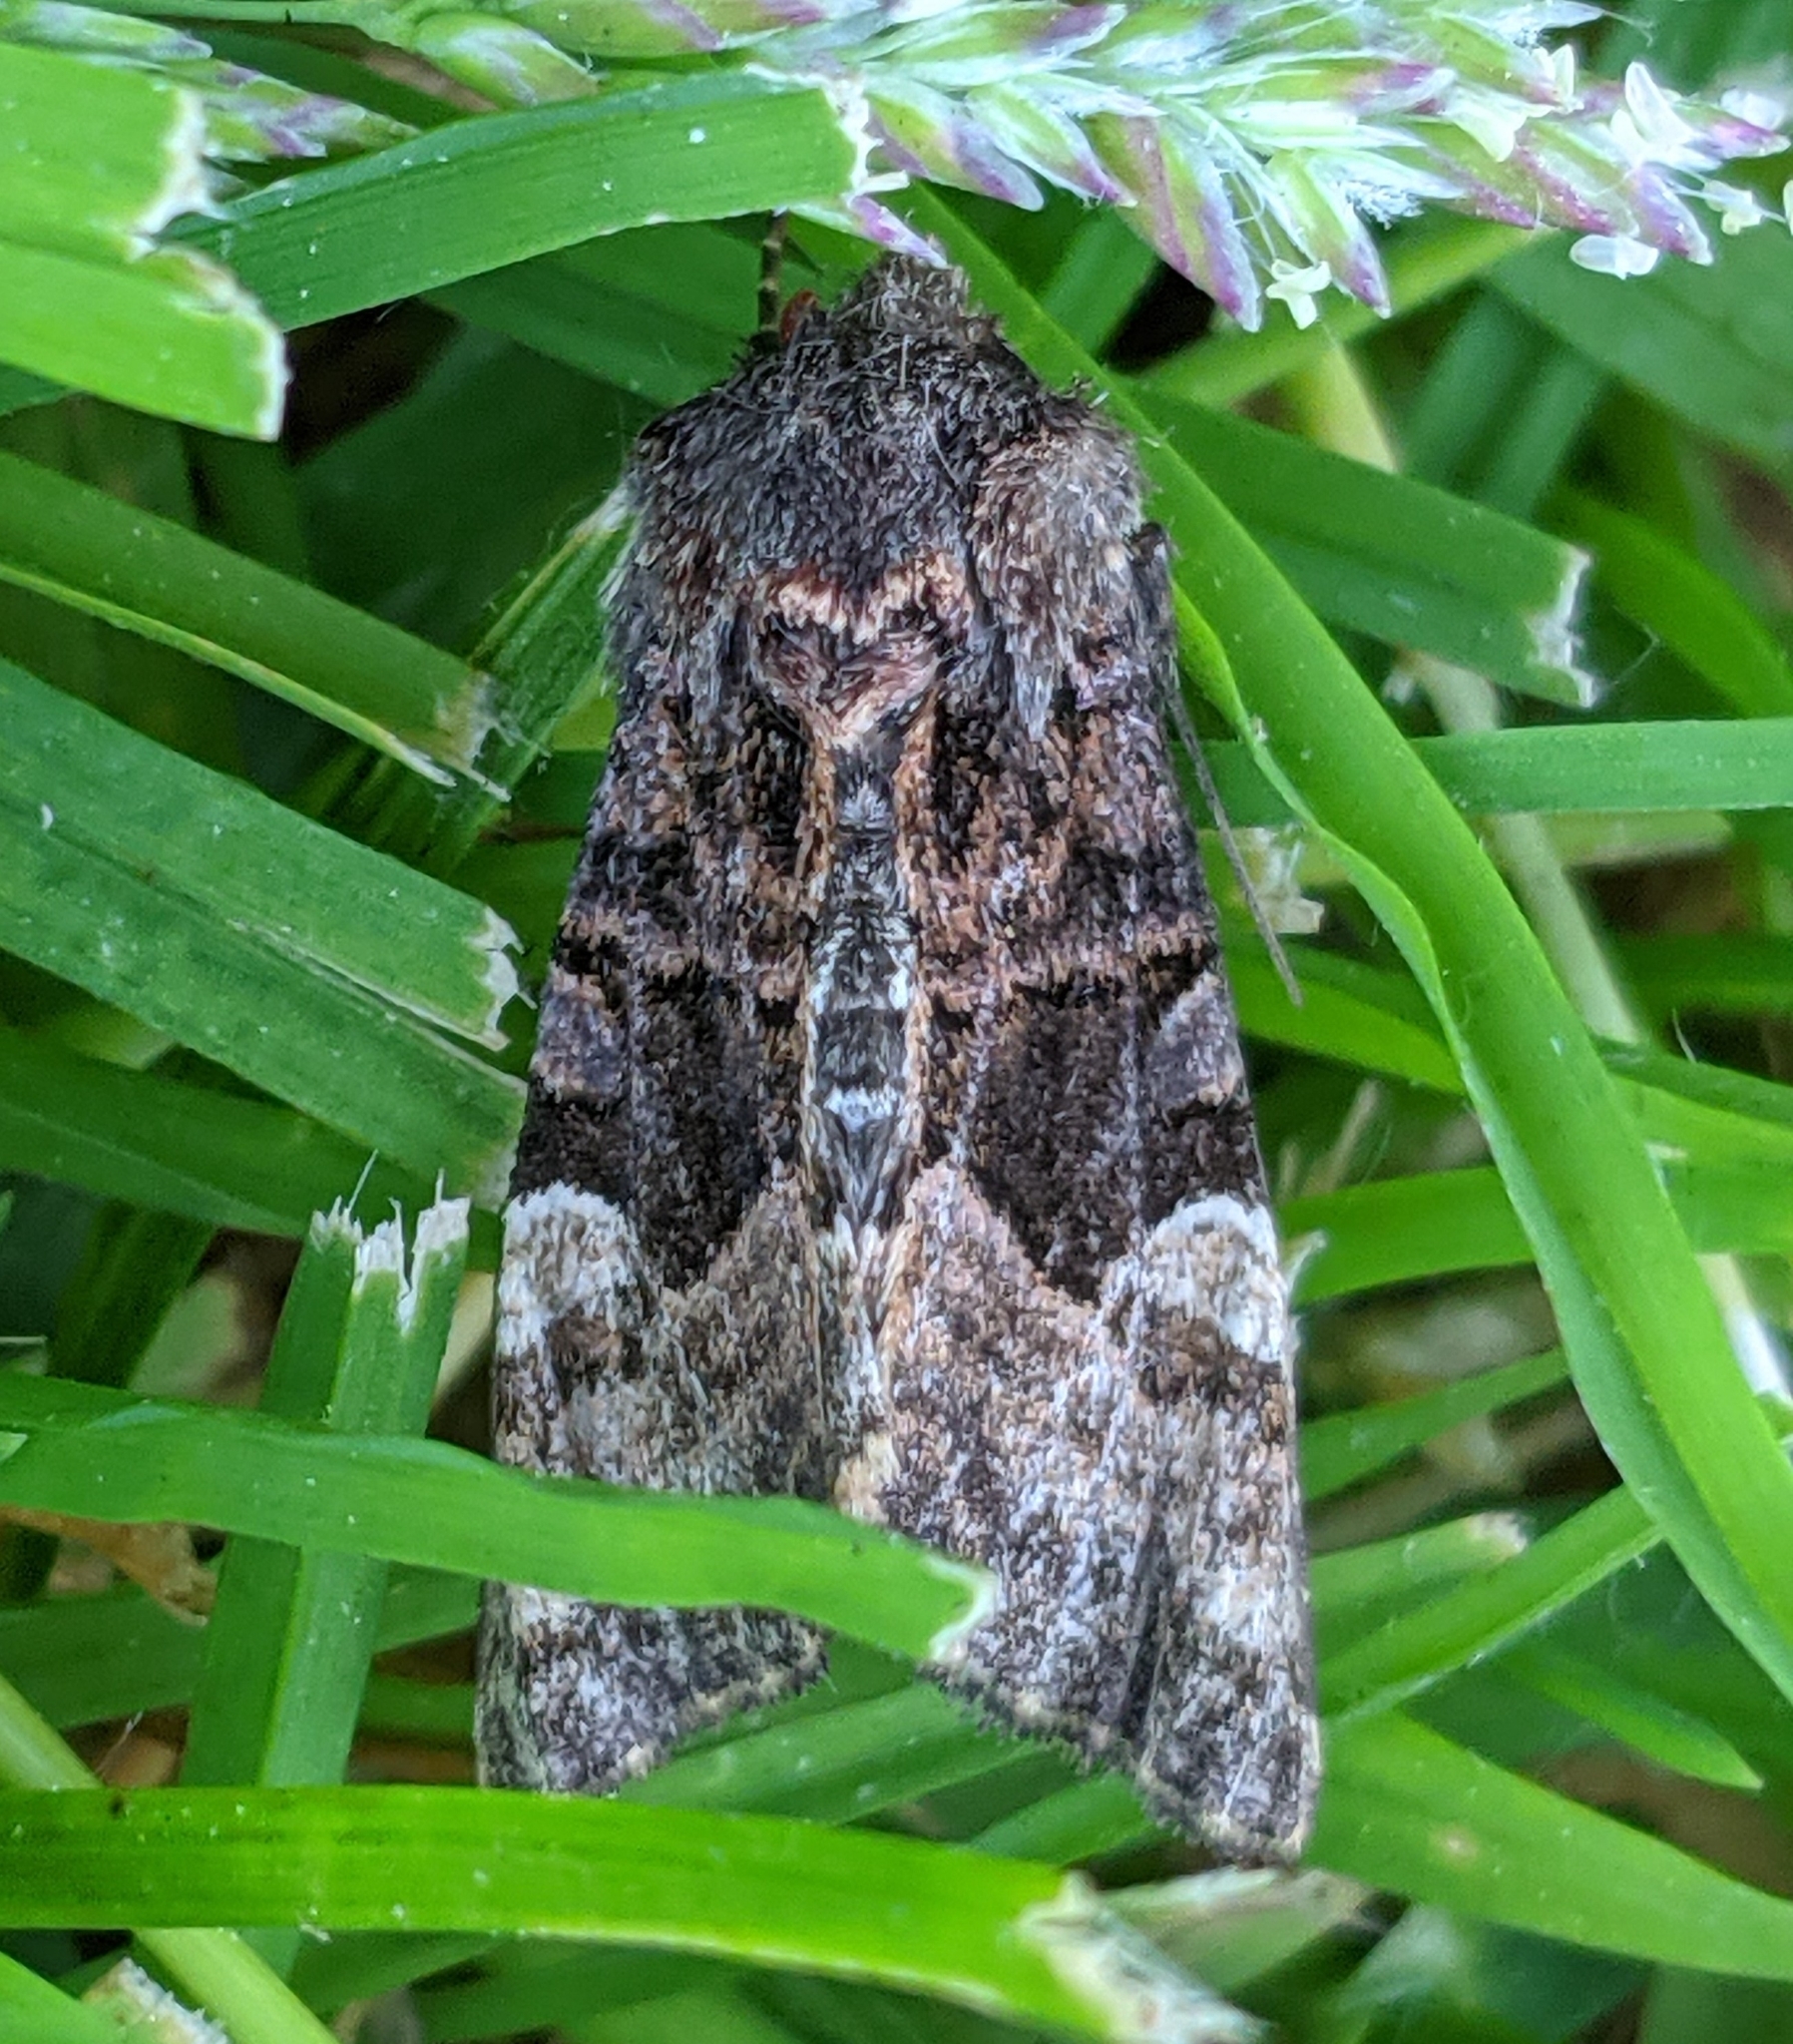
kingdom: Animalia
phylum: Arthropoda
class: Insecta
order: Lepidoptera
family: Noctuidae
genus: Euplexia
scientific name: Euplexia benesimilis
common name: American angle shades
